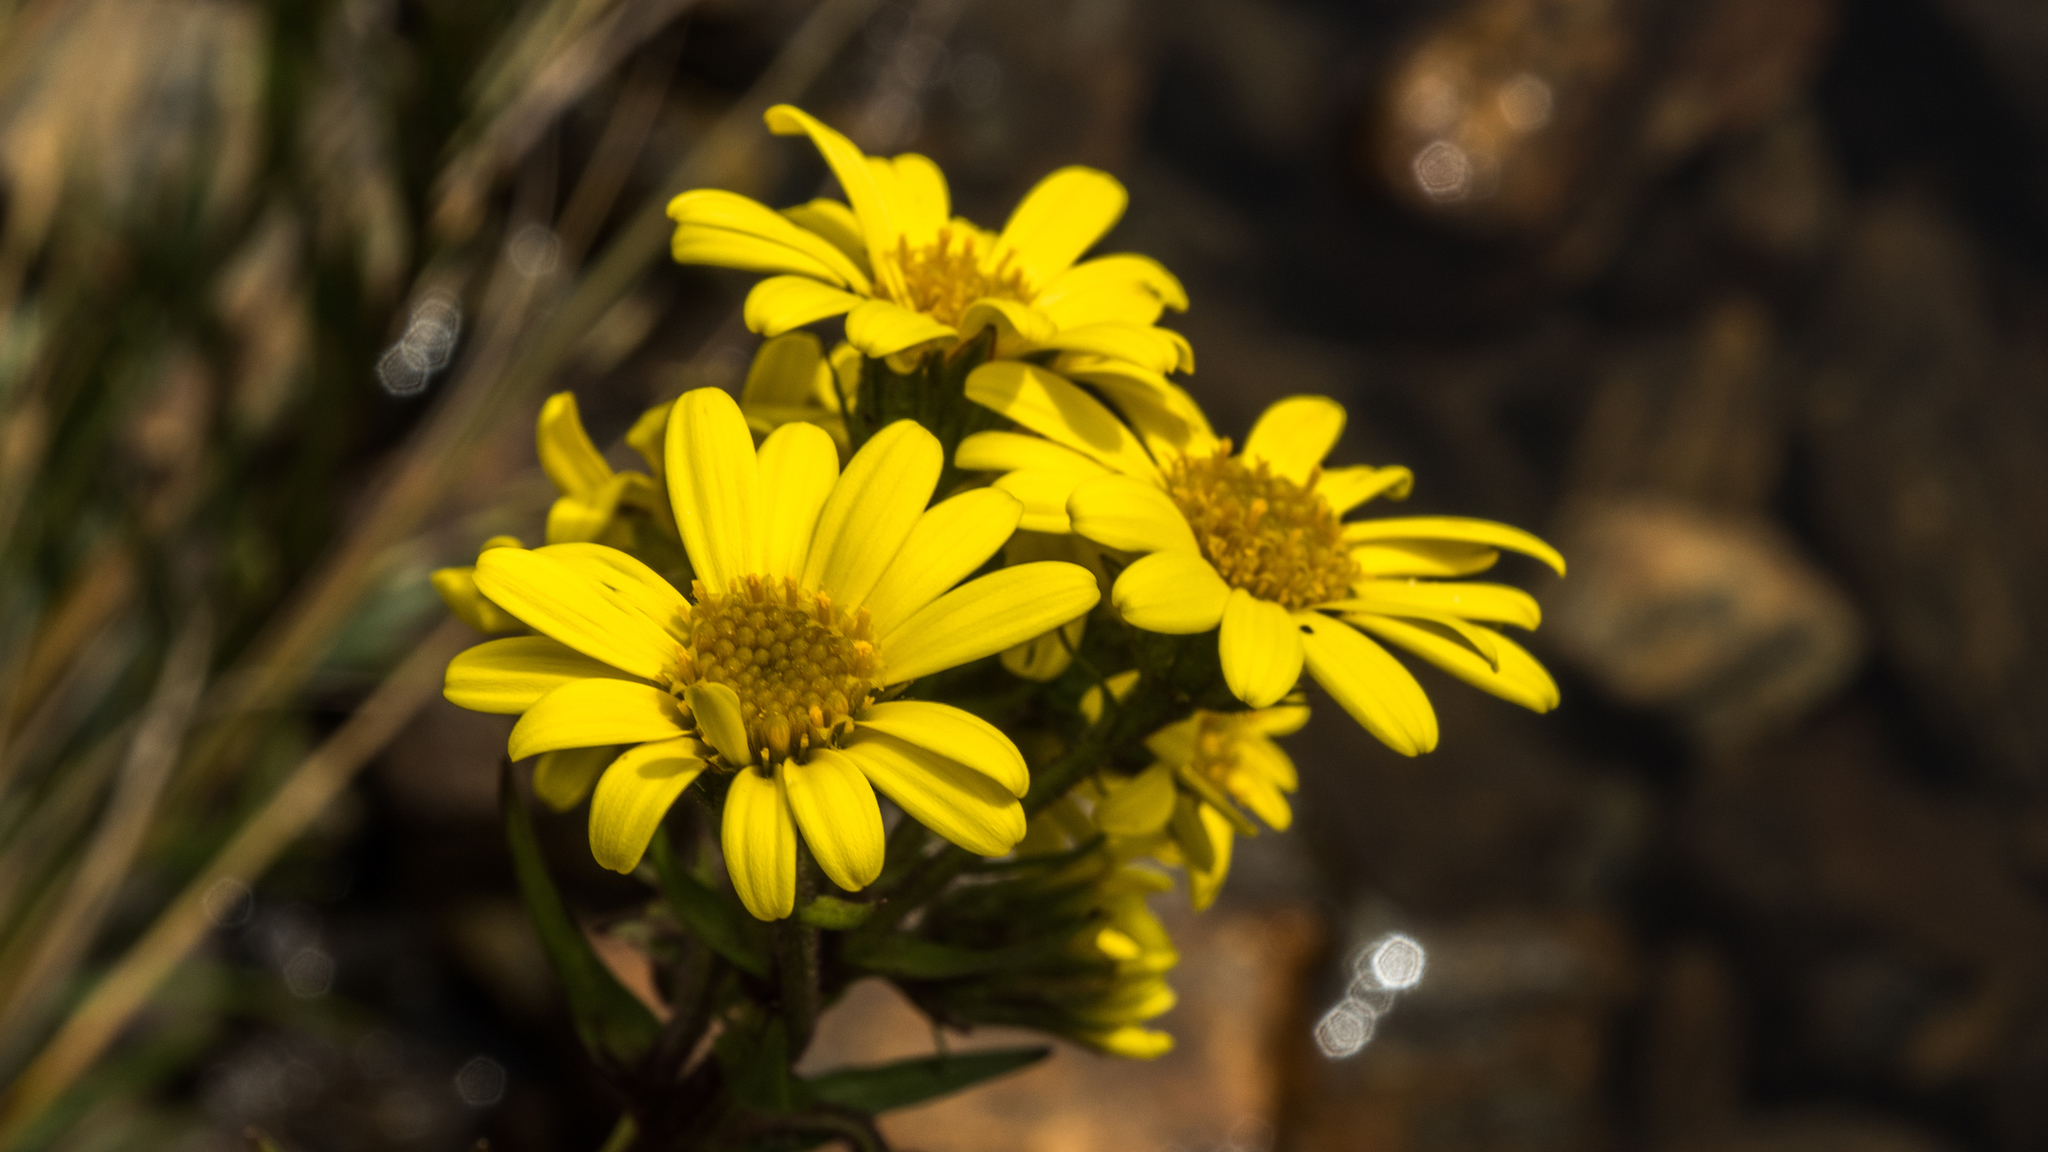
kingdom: Plantae
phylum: Tracheophyta
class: Magnoliopsida
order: Asterales
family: Asteraceae
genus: Dolichoglottis
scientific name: Dolichoglottis lyallii
